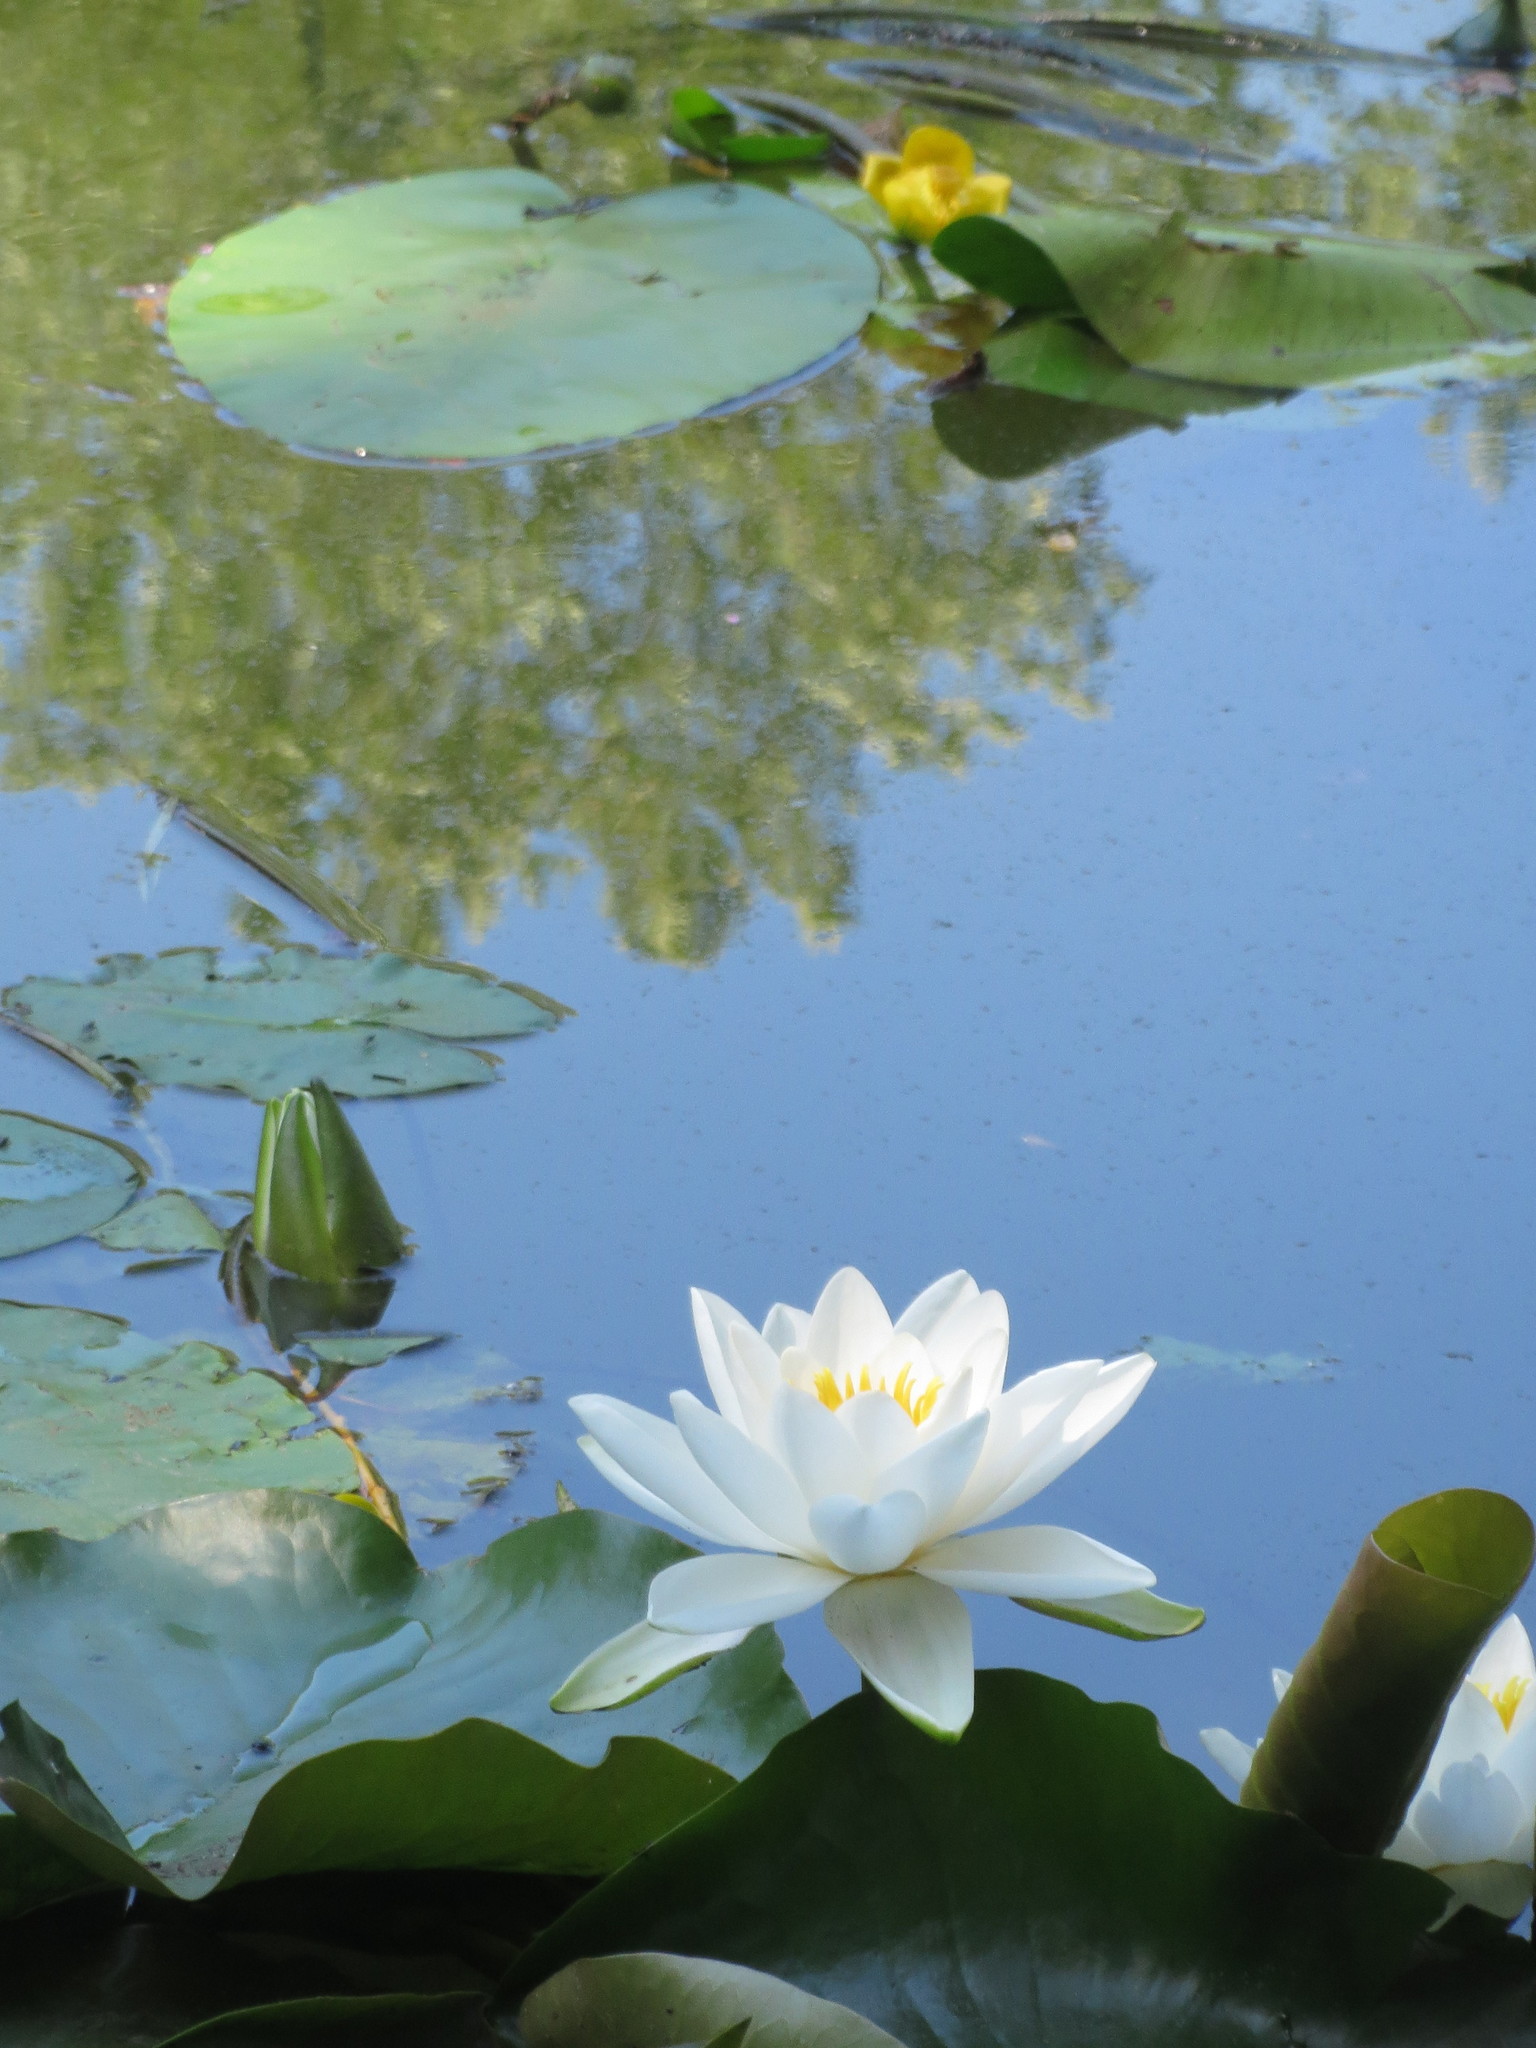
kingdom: Plantae
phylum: Tracheophyta
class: Magnoliopsida
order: Nymphaeales
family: Nymphaeaceae
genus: Nymphaea
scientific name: Nymphaea alba
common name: White water-lily
